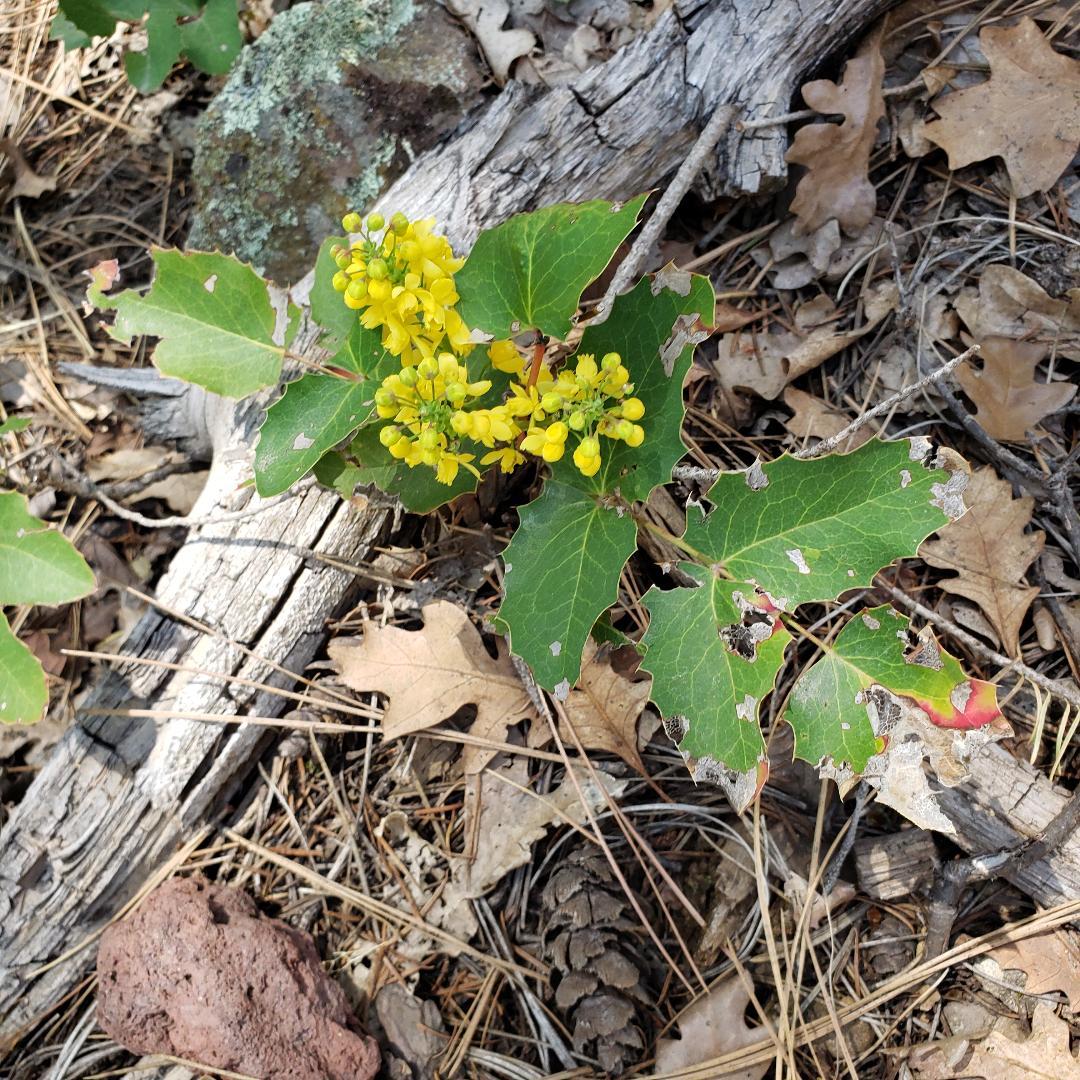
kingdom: Plantae
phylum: Tracheophyta
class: Magnoliopsida
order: Ranunculales
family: Berberidaceae
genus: Mahonia
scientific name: Mahonia repens
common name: Creeping oregon-grape
